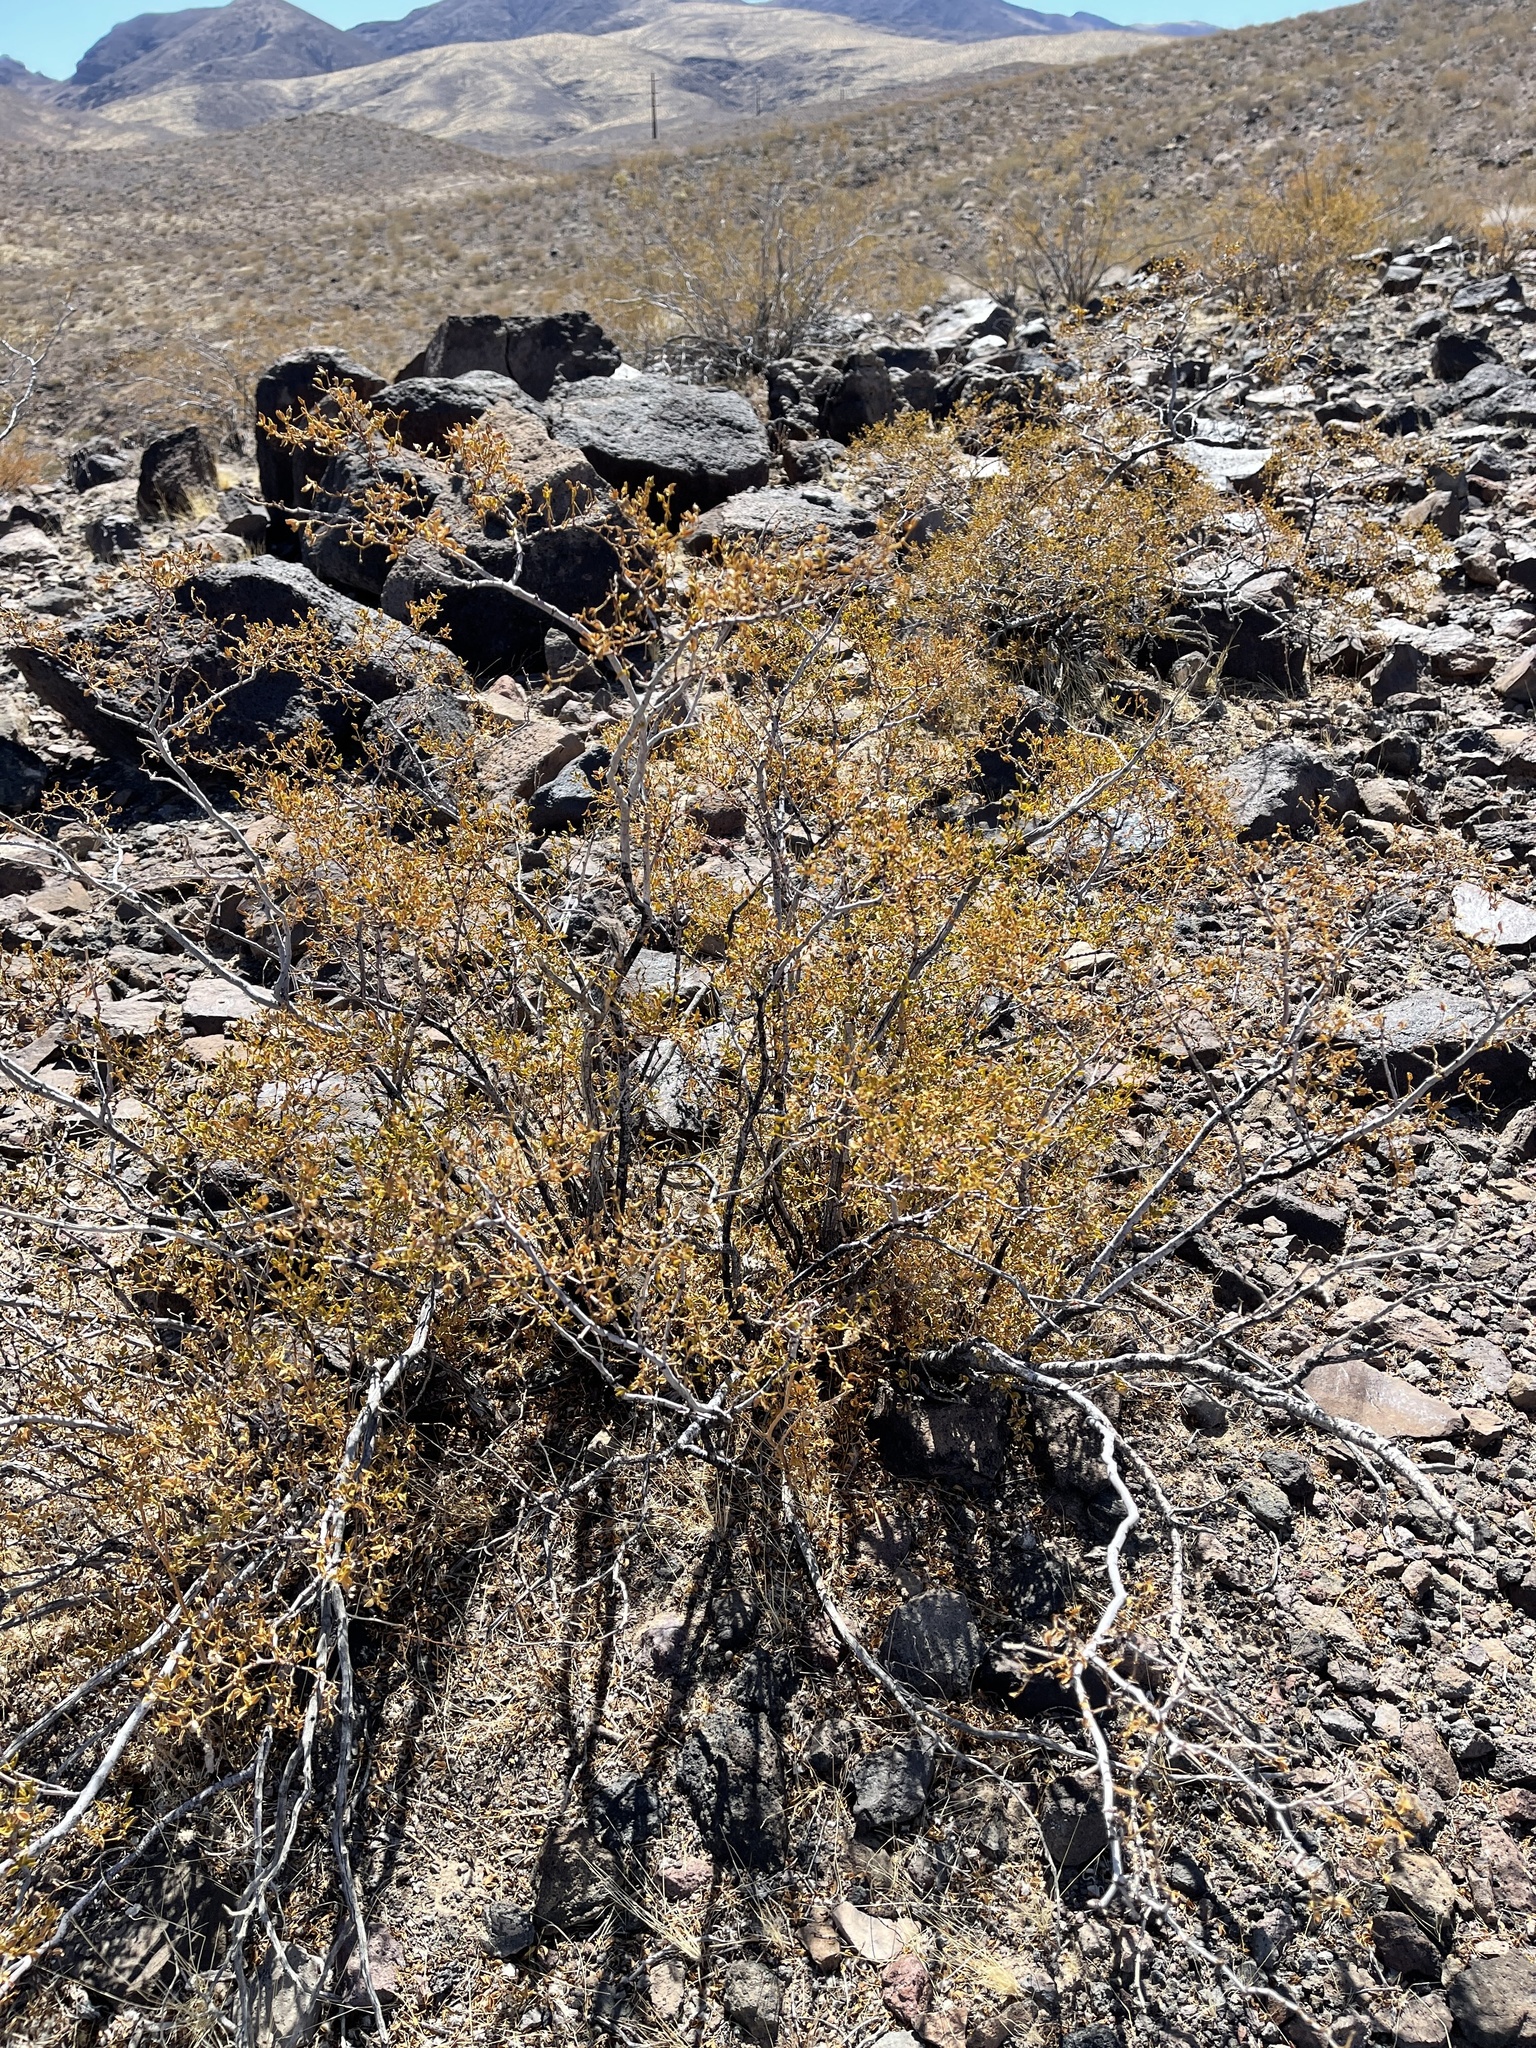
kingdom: Plantae
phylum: Tracheophyta
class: Magnoliopsida
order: Zygophyllales
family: Zygophyllaceae
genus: Larrea
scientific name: Larrea tridentata
